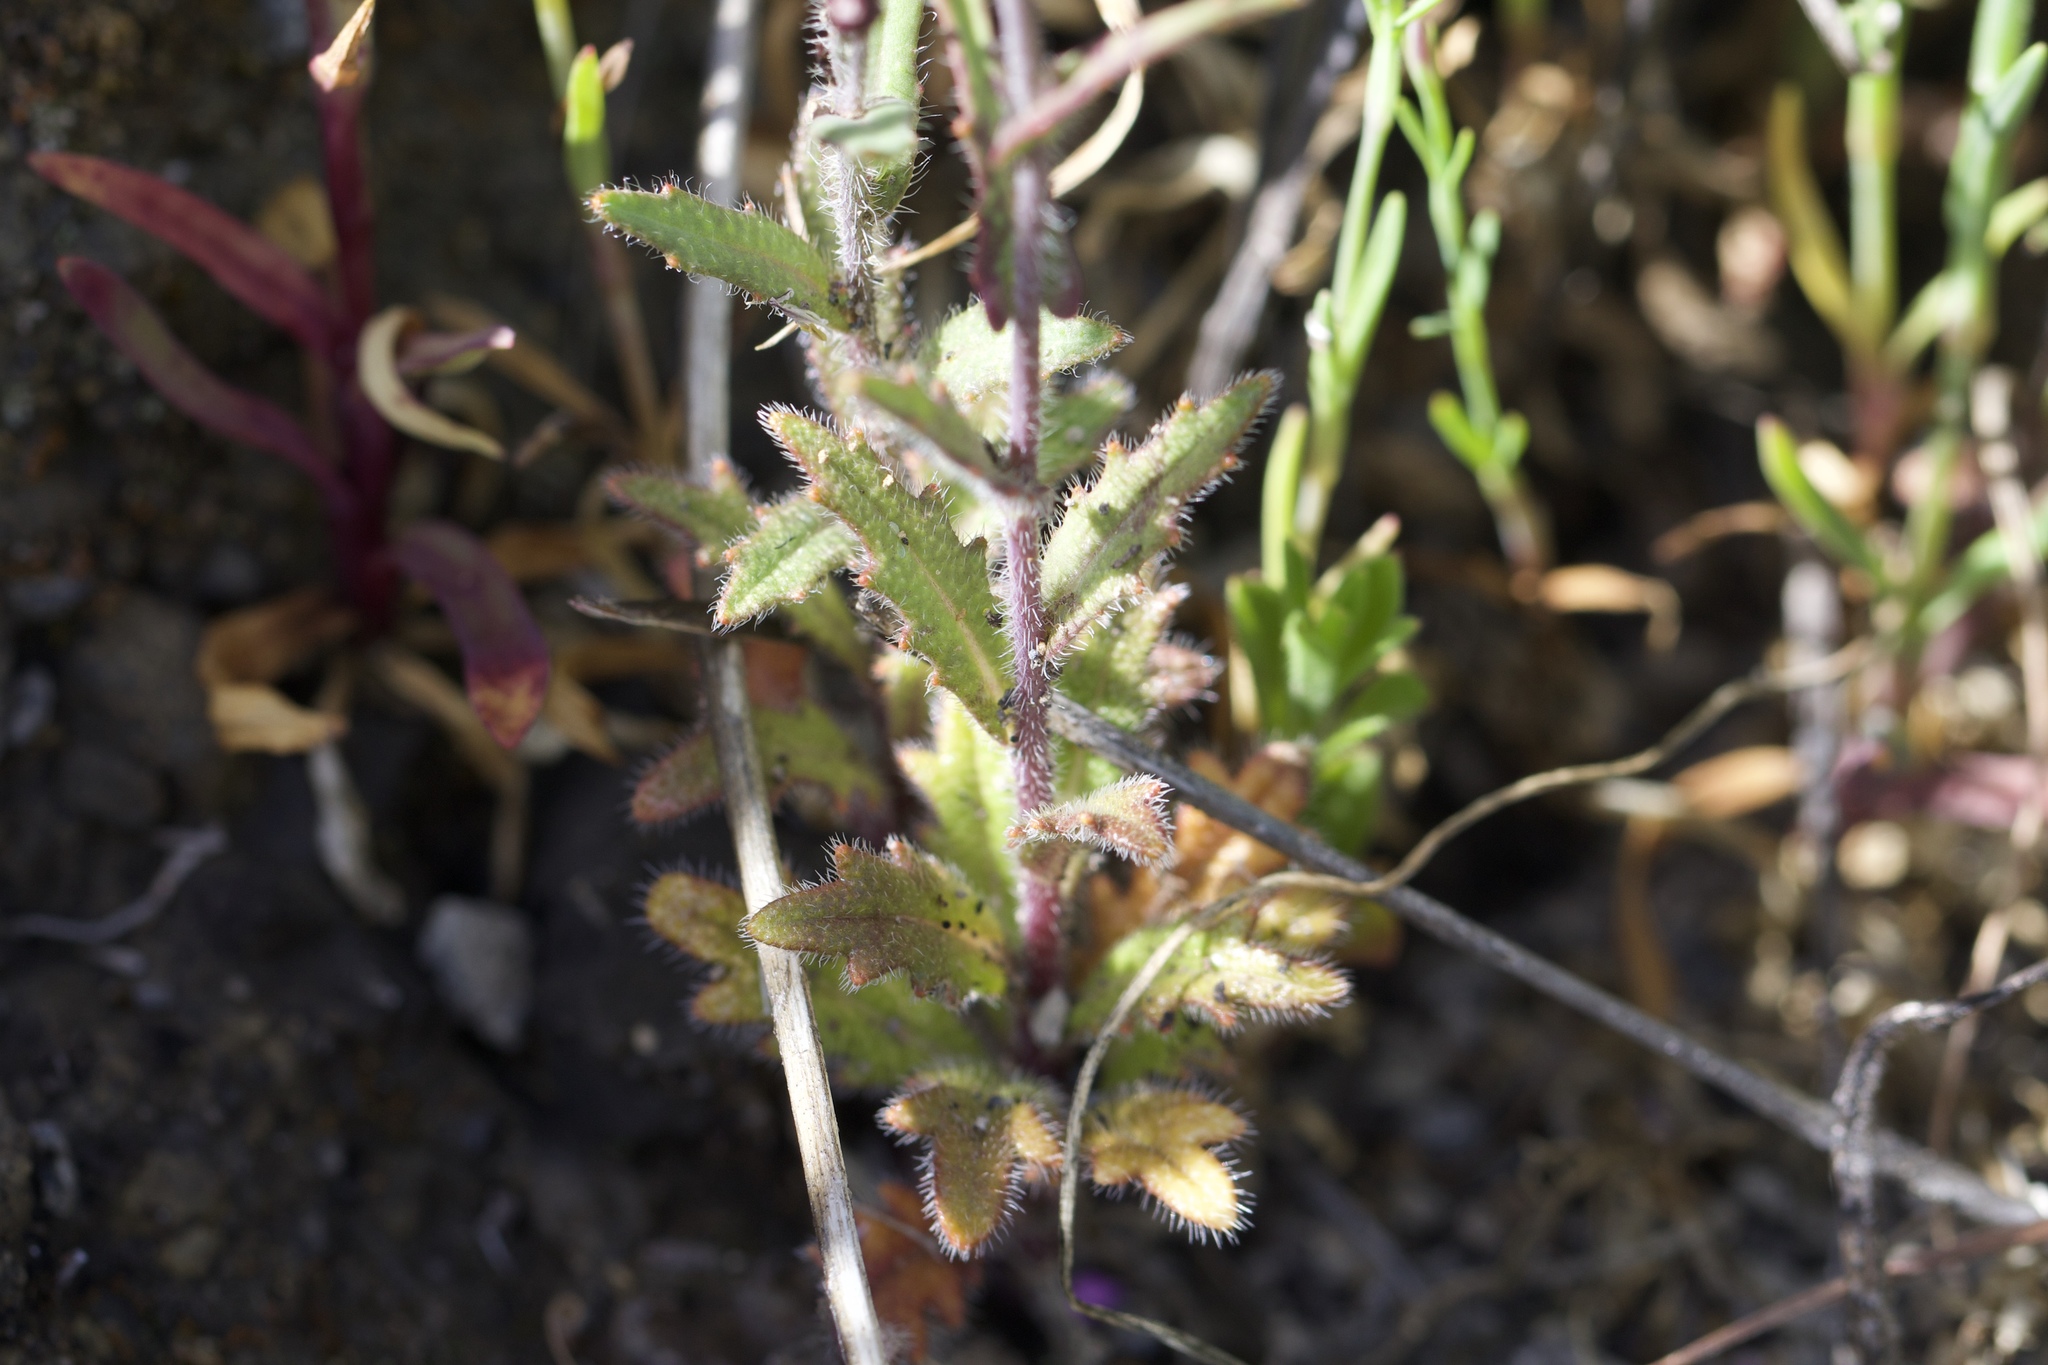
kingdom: Plantae
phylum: Tracheophyta
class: Magnoliopsida
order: Brassicales
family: Brassicaceae
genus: Streptanthus
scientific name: Streptanthus glandulosus
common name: Jewel-flower
